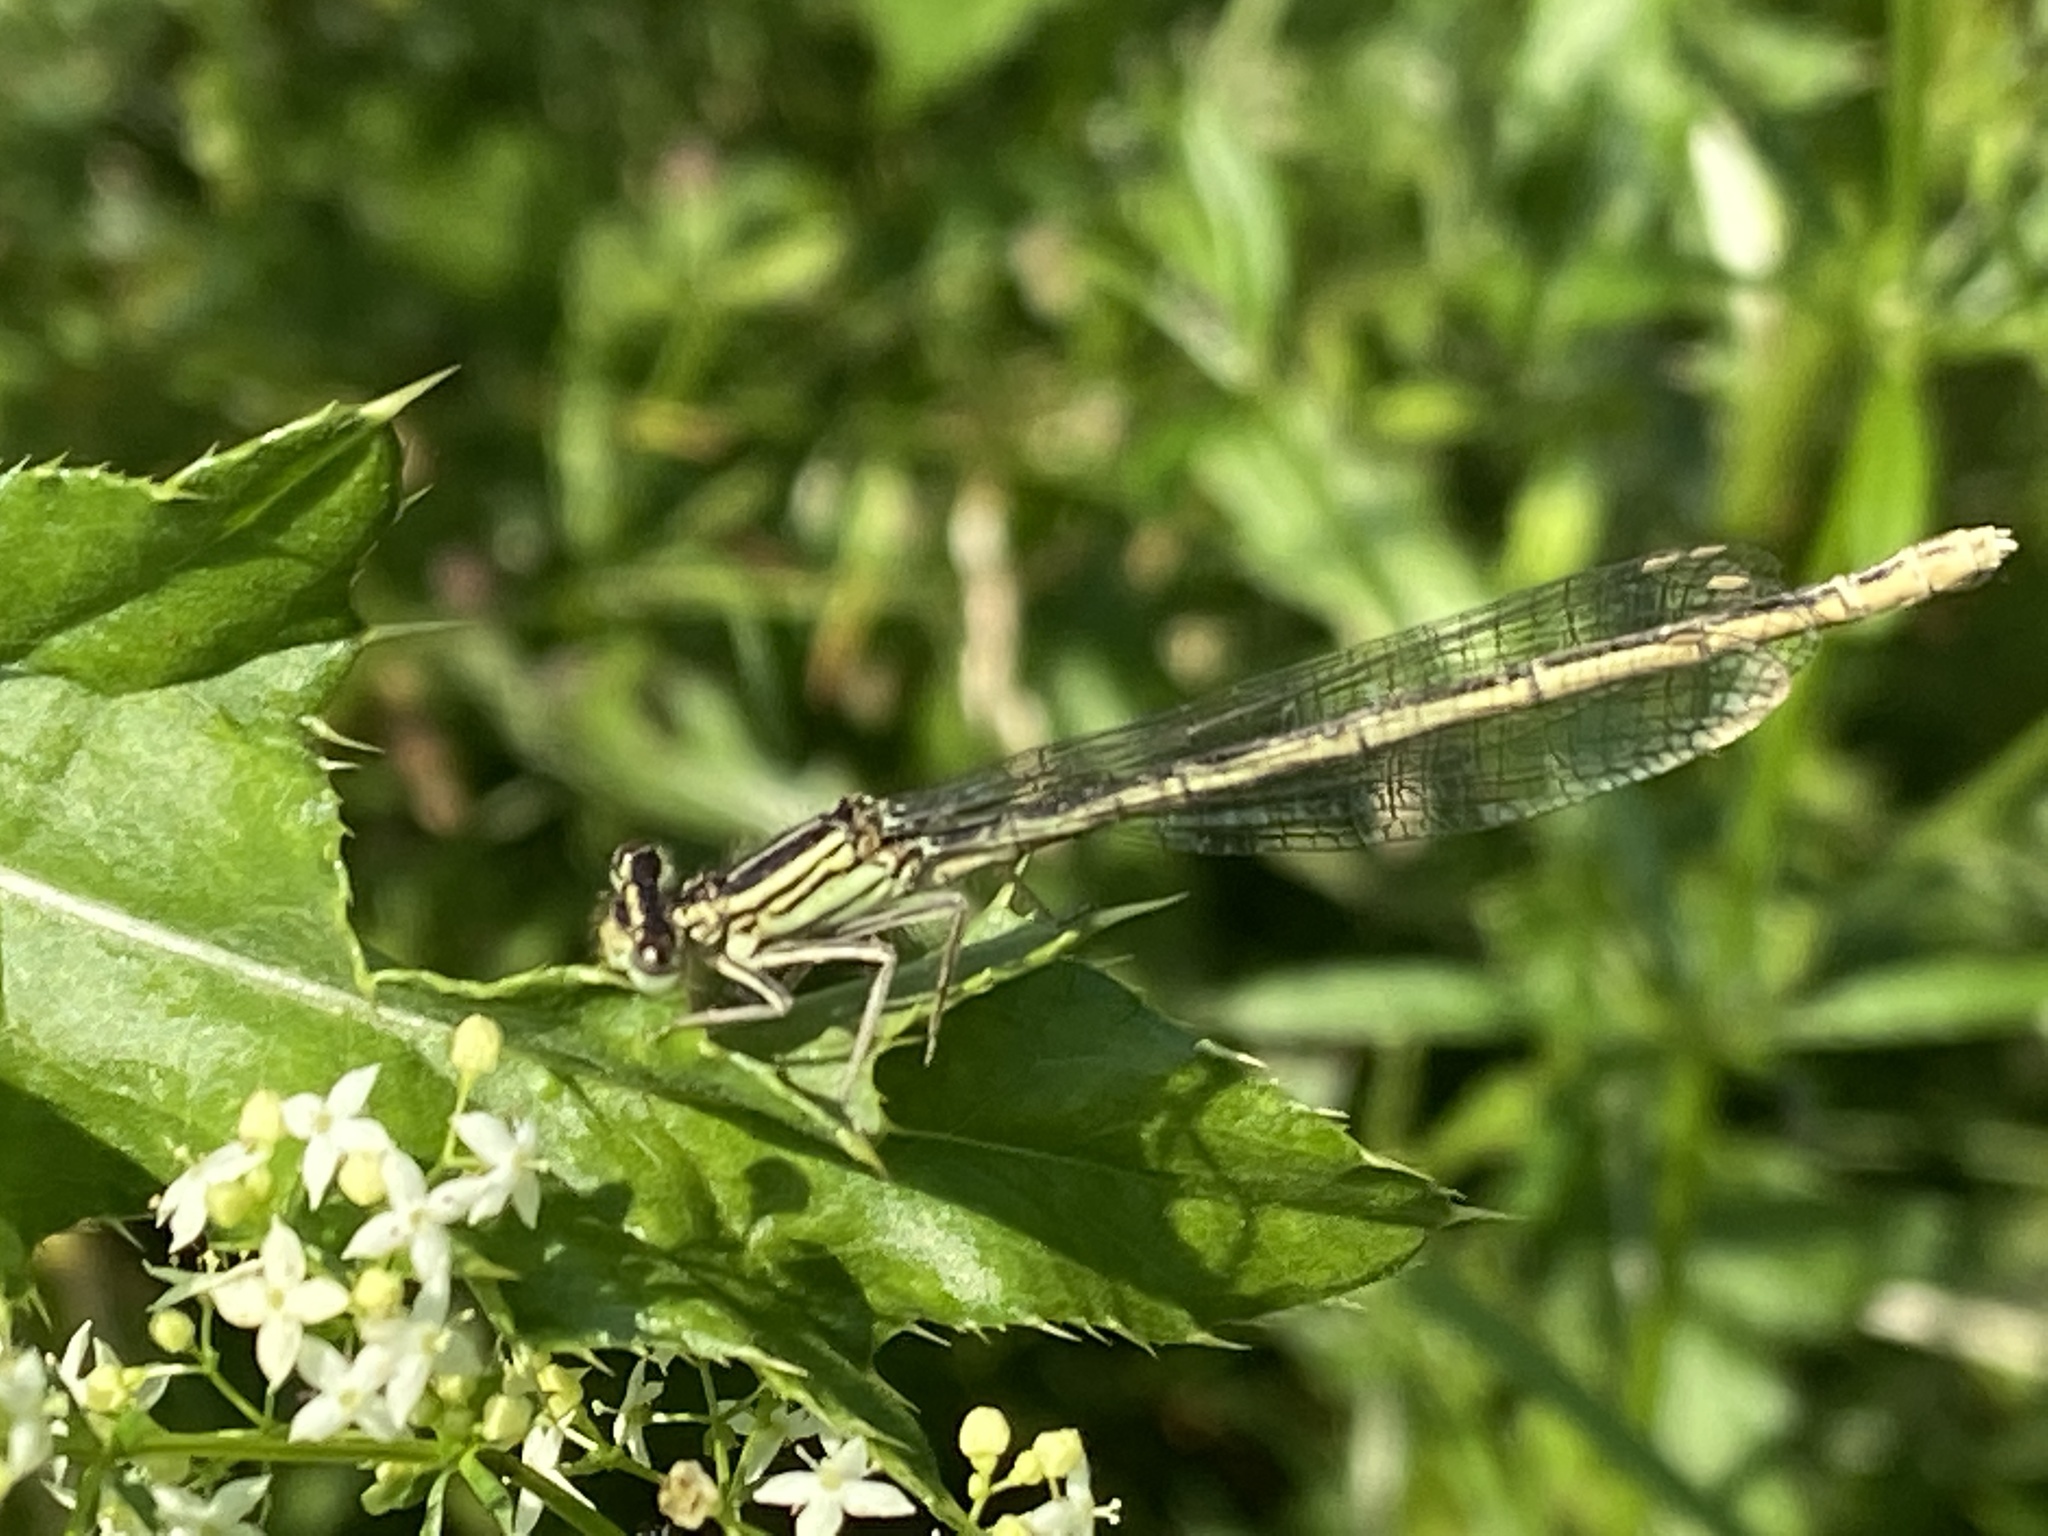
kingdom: Animalia
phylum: Arthropoda
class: Insecta
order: Odonata
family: Platycnemididae
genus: Platycnemis
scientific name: Platycnemis pennipes
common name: White-legged damselfly
